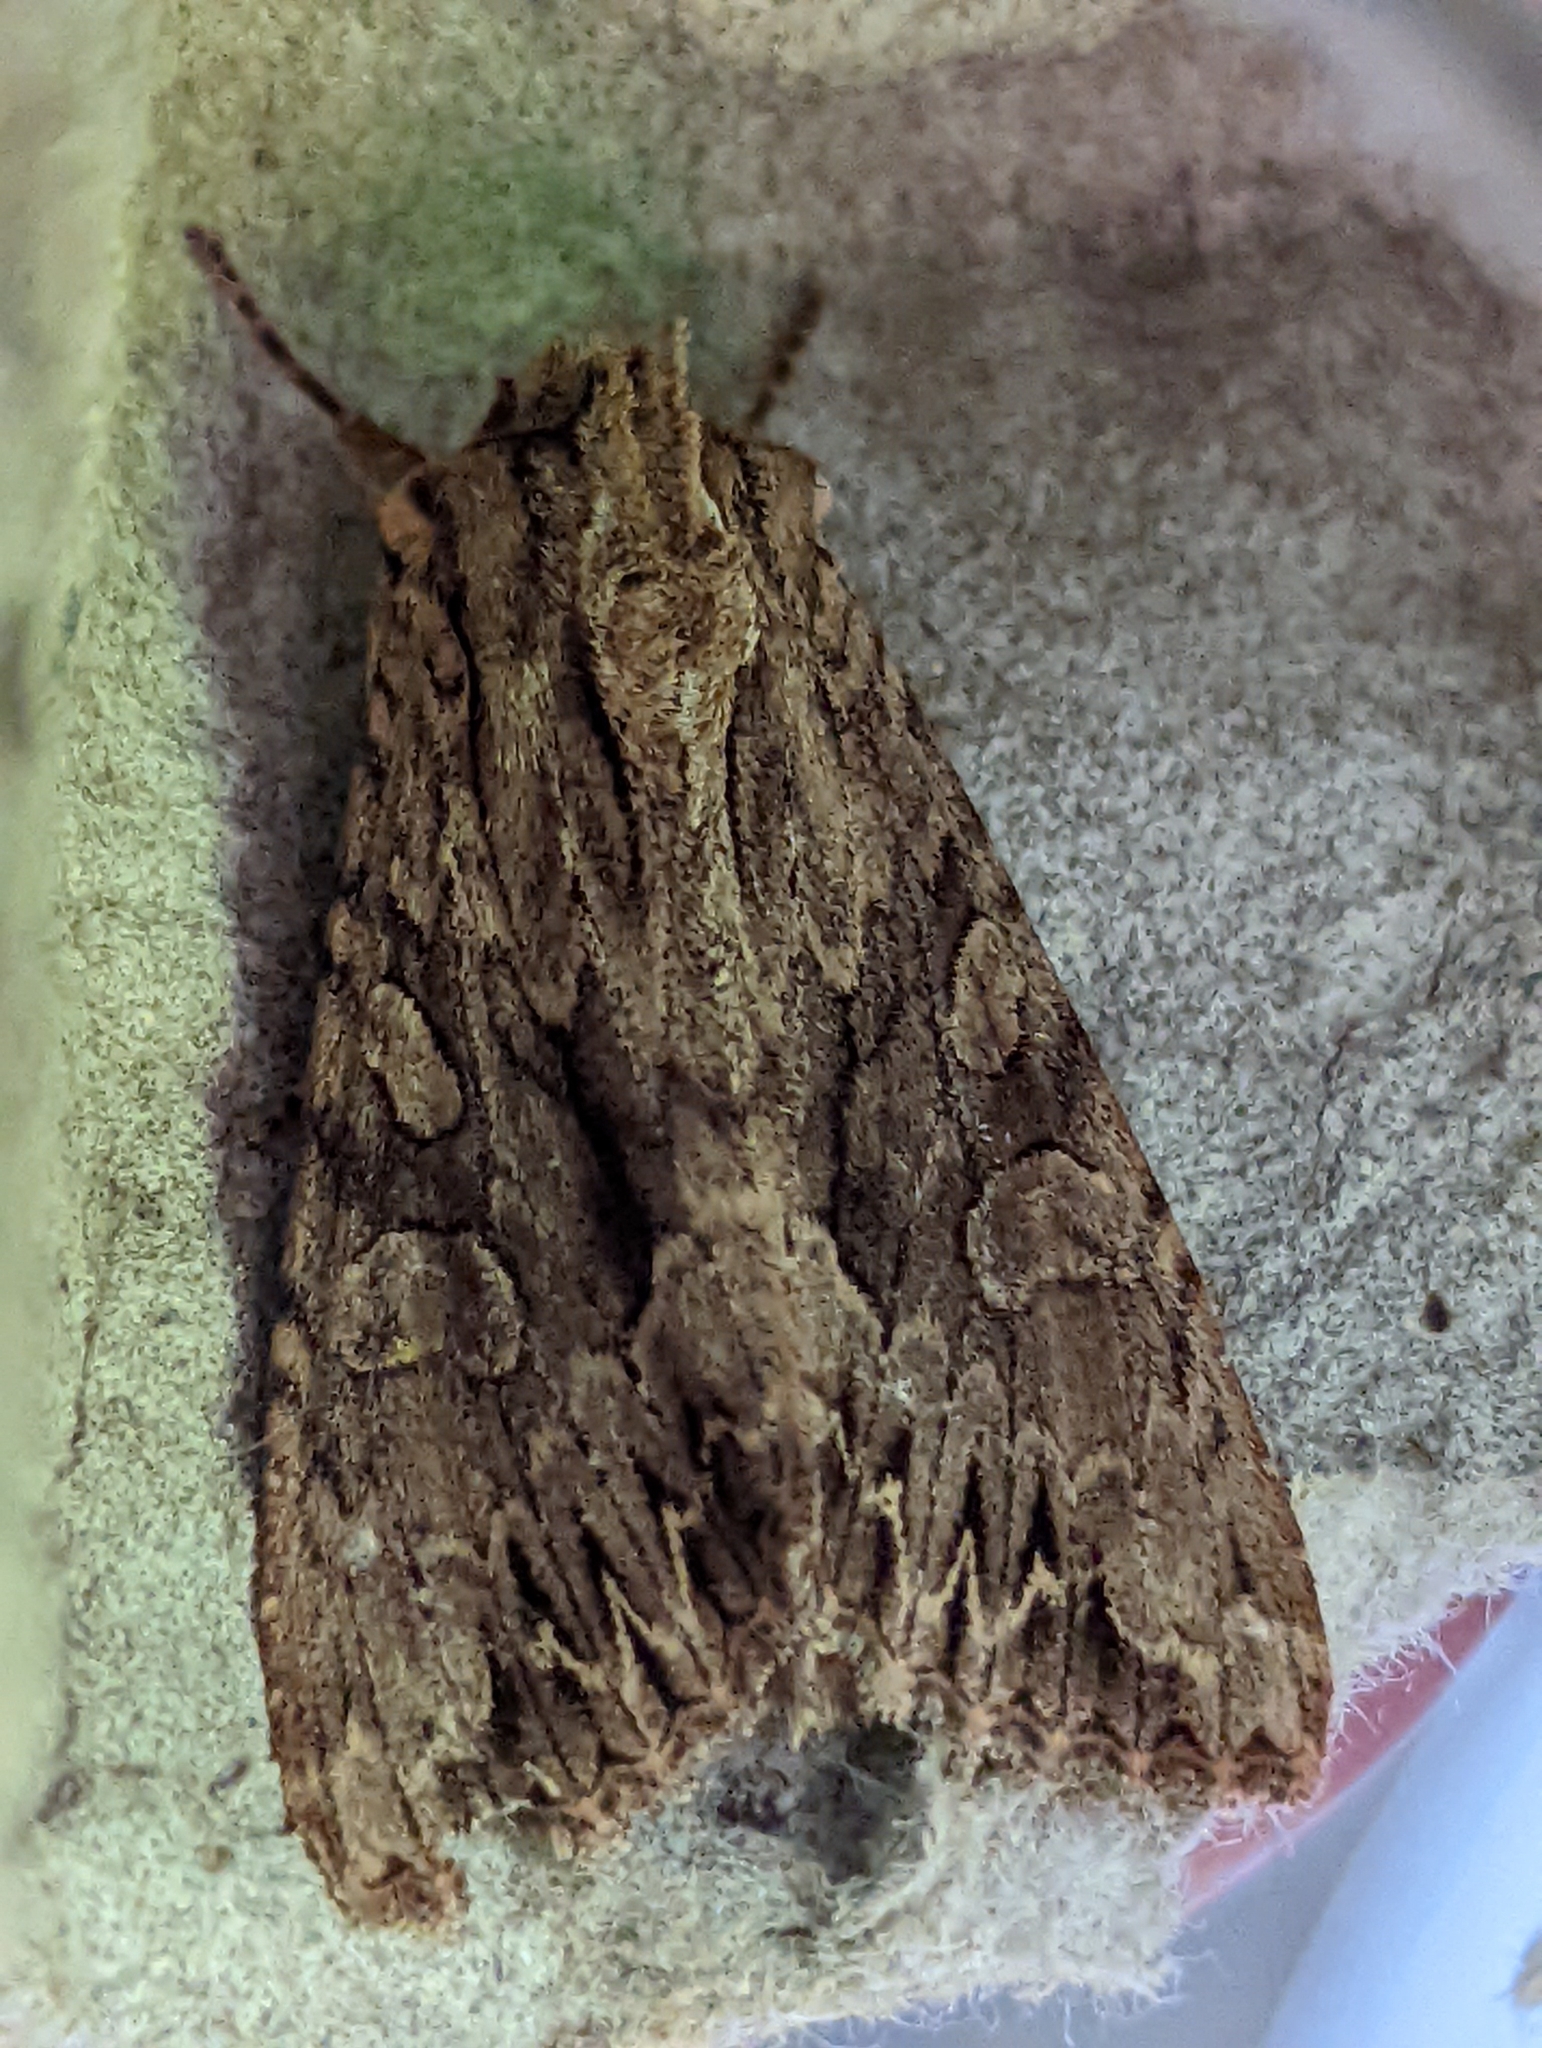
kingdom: Animalia
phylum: Arthropoda
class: Insecta
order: Lepidoptera
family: Noctuidae
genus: Apamea
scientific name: Apamea monoglypha
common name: Dark arches
